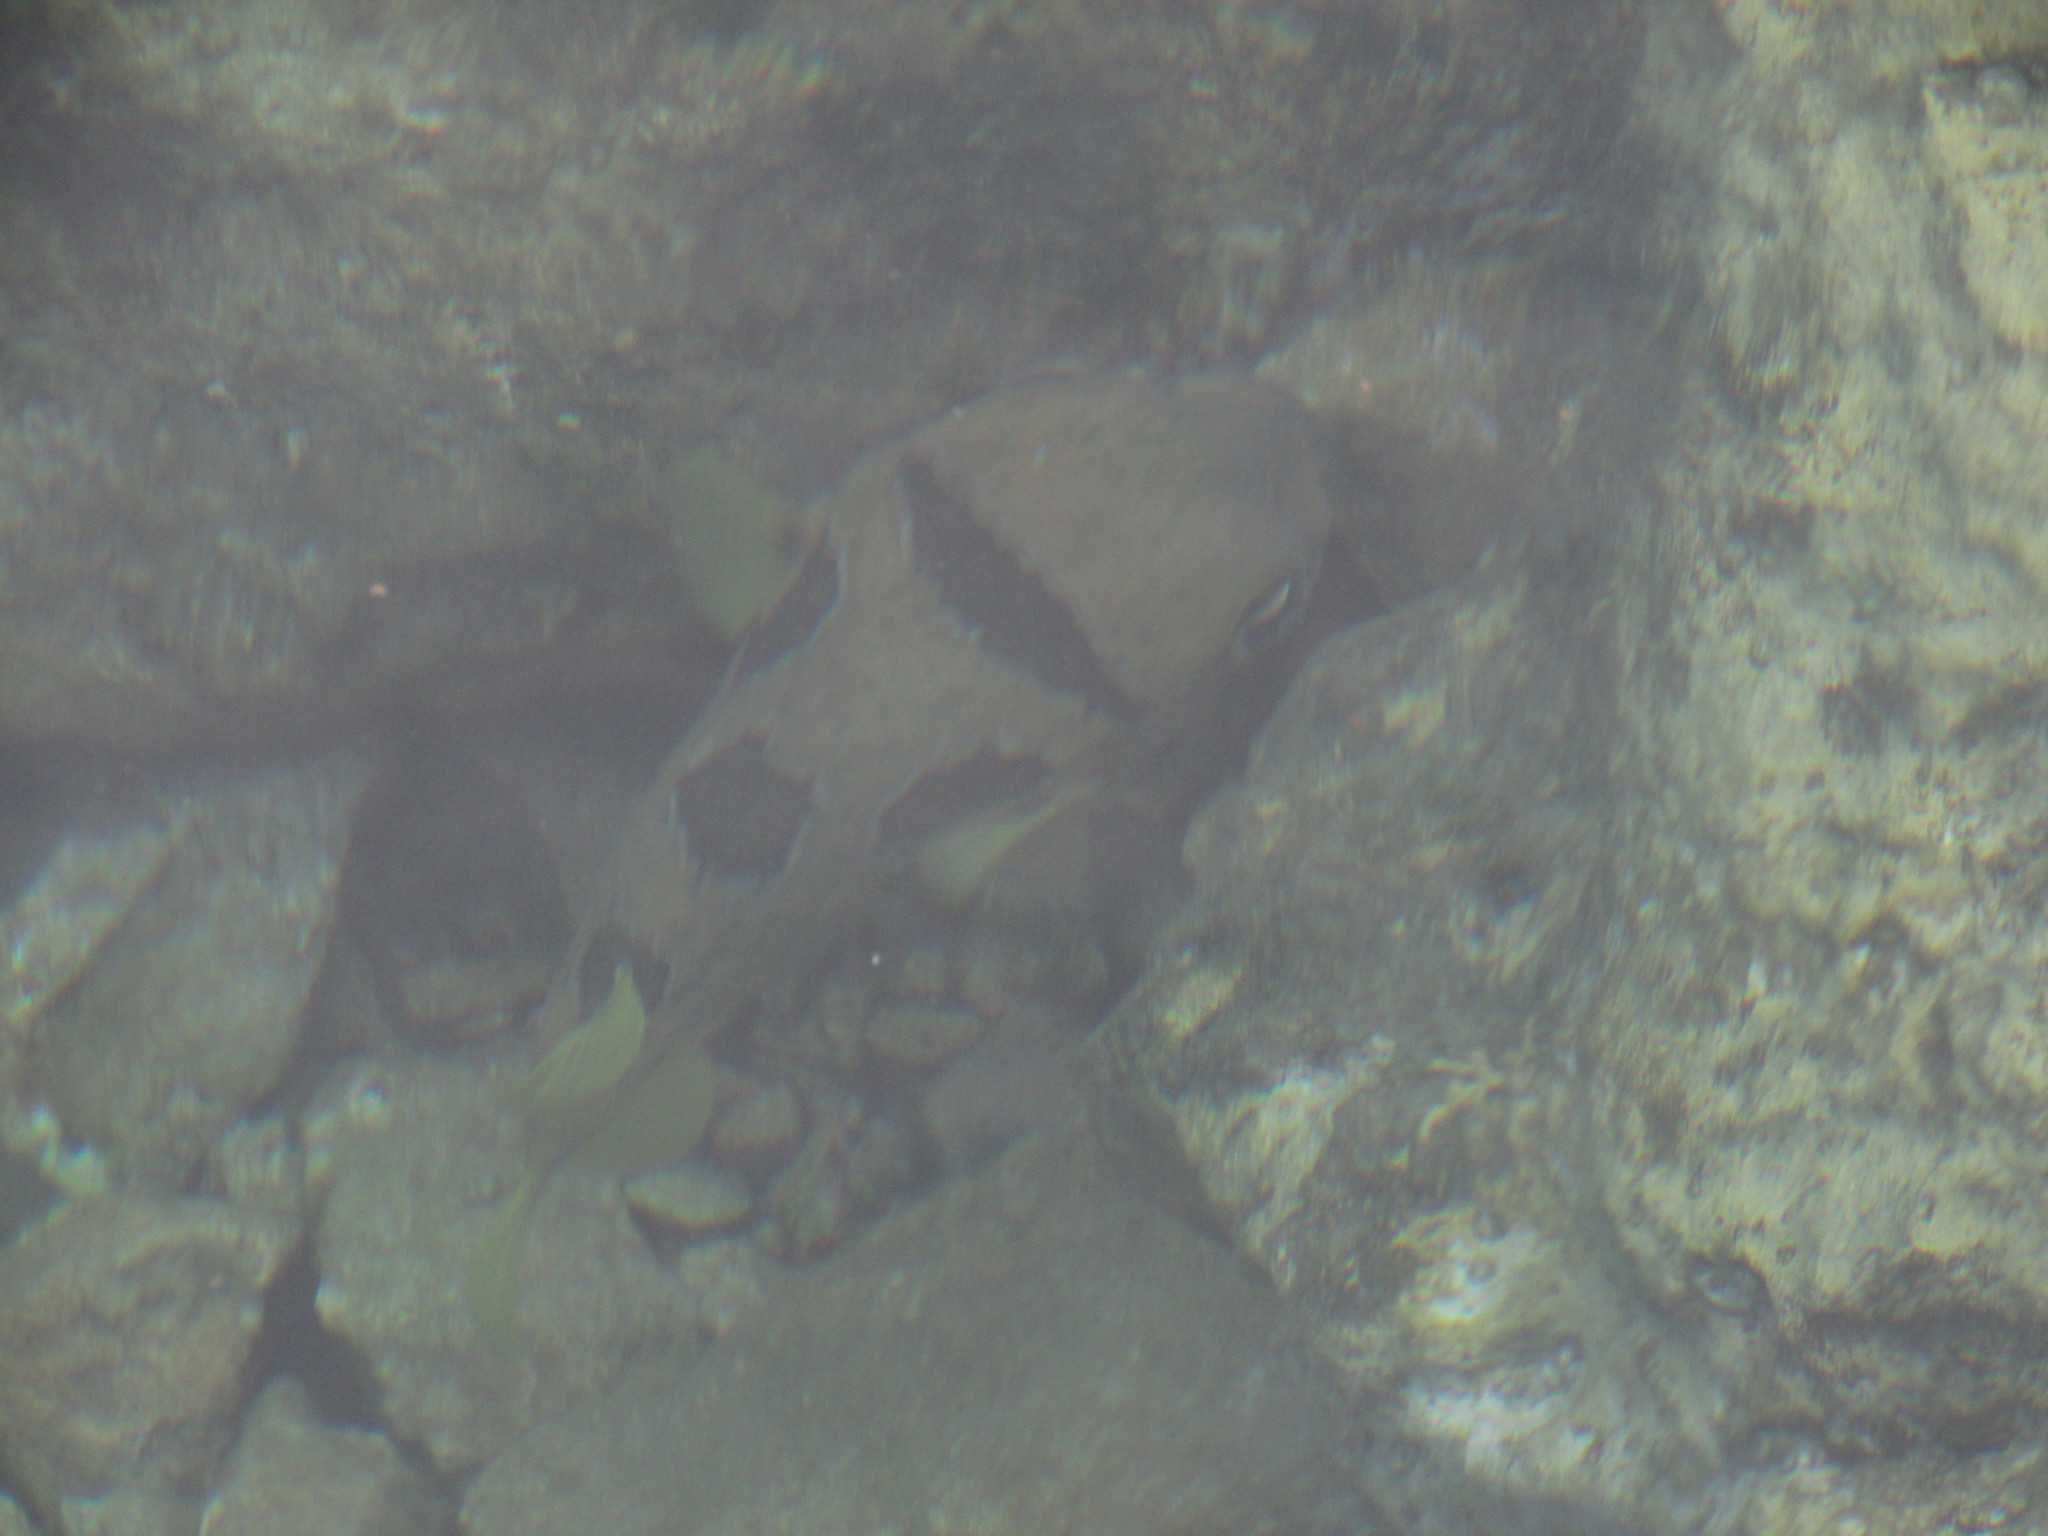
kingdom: Animalia
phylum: Chordata
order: Tetraodontiformes
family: Diodontidae
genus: Diodon
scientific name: Diodon liturosus
